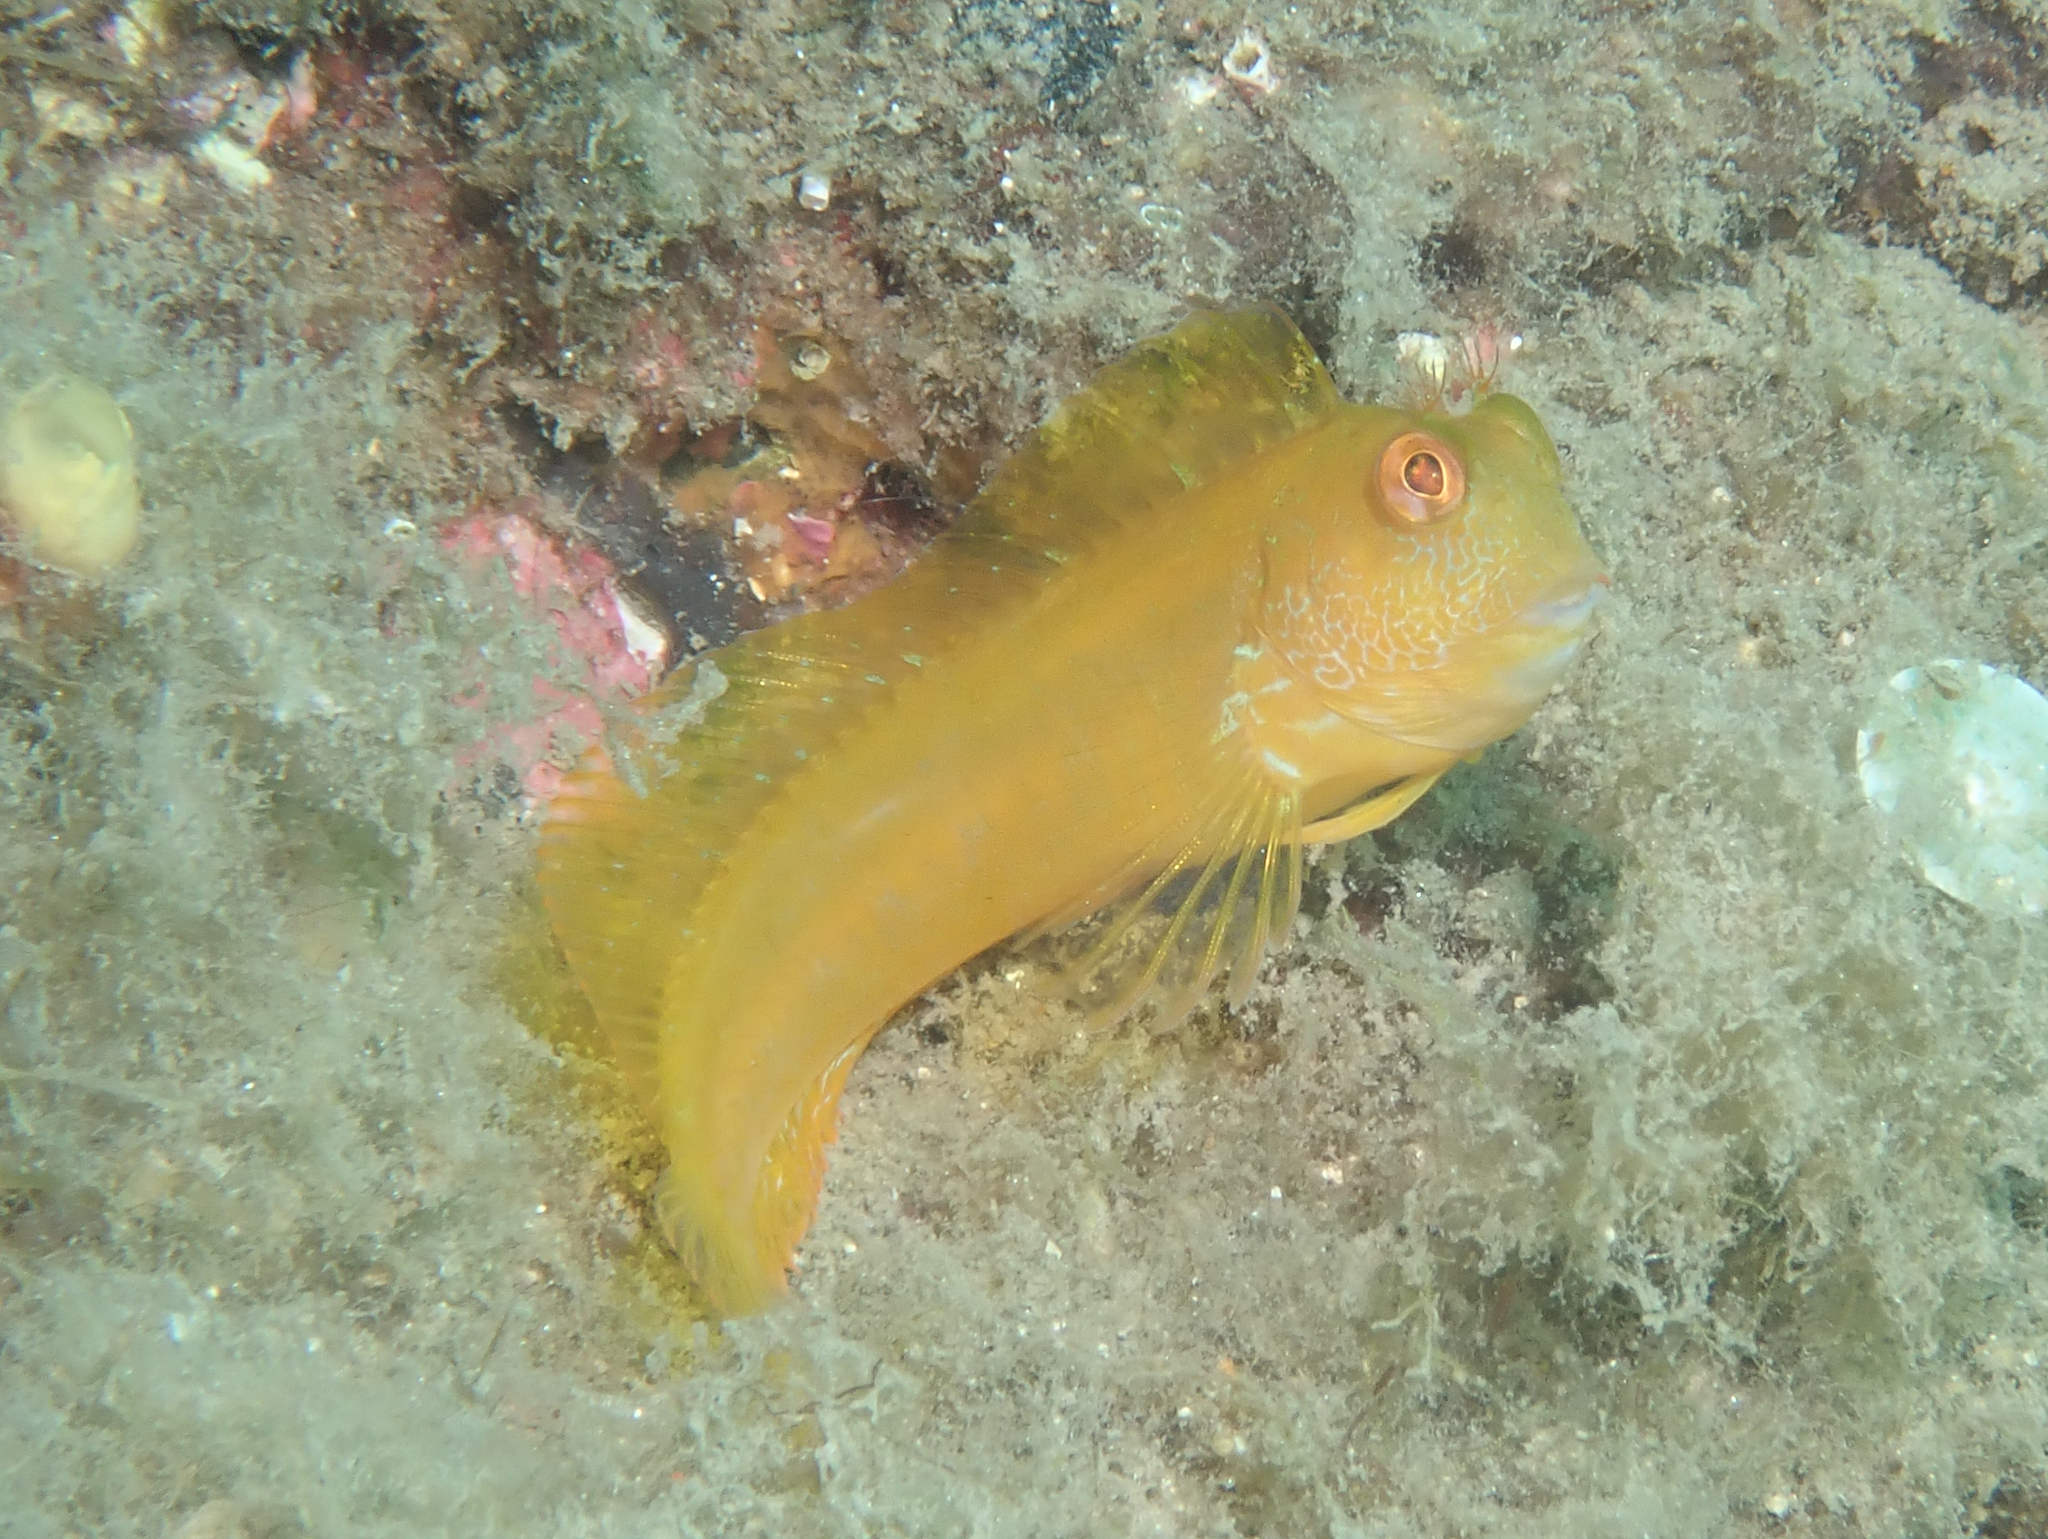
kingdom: Animalia
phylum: Chordata
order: Perciformes
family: Blenniidae
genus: Parablennius
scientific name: Parablennius pilicornis
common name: Ringneck blenny
